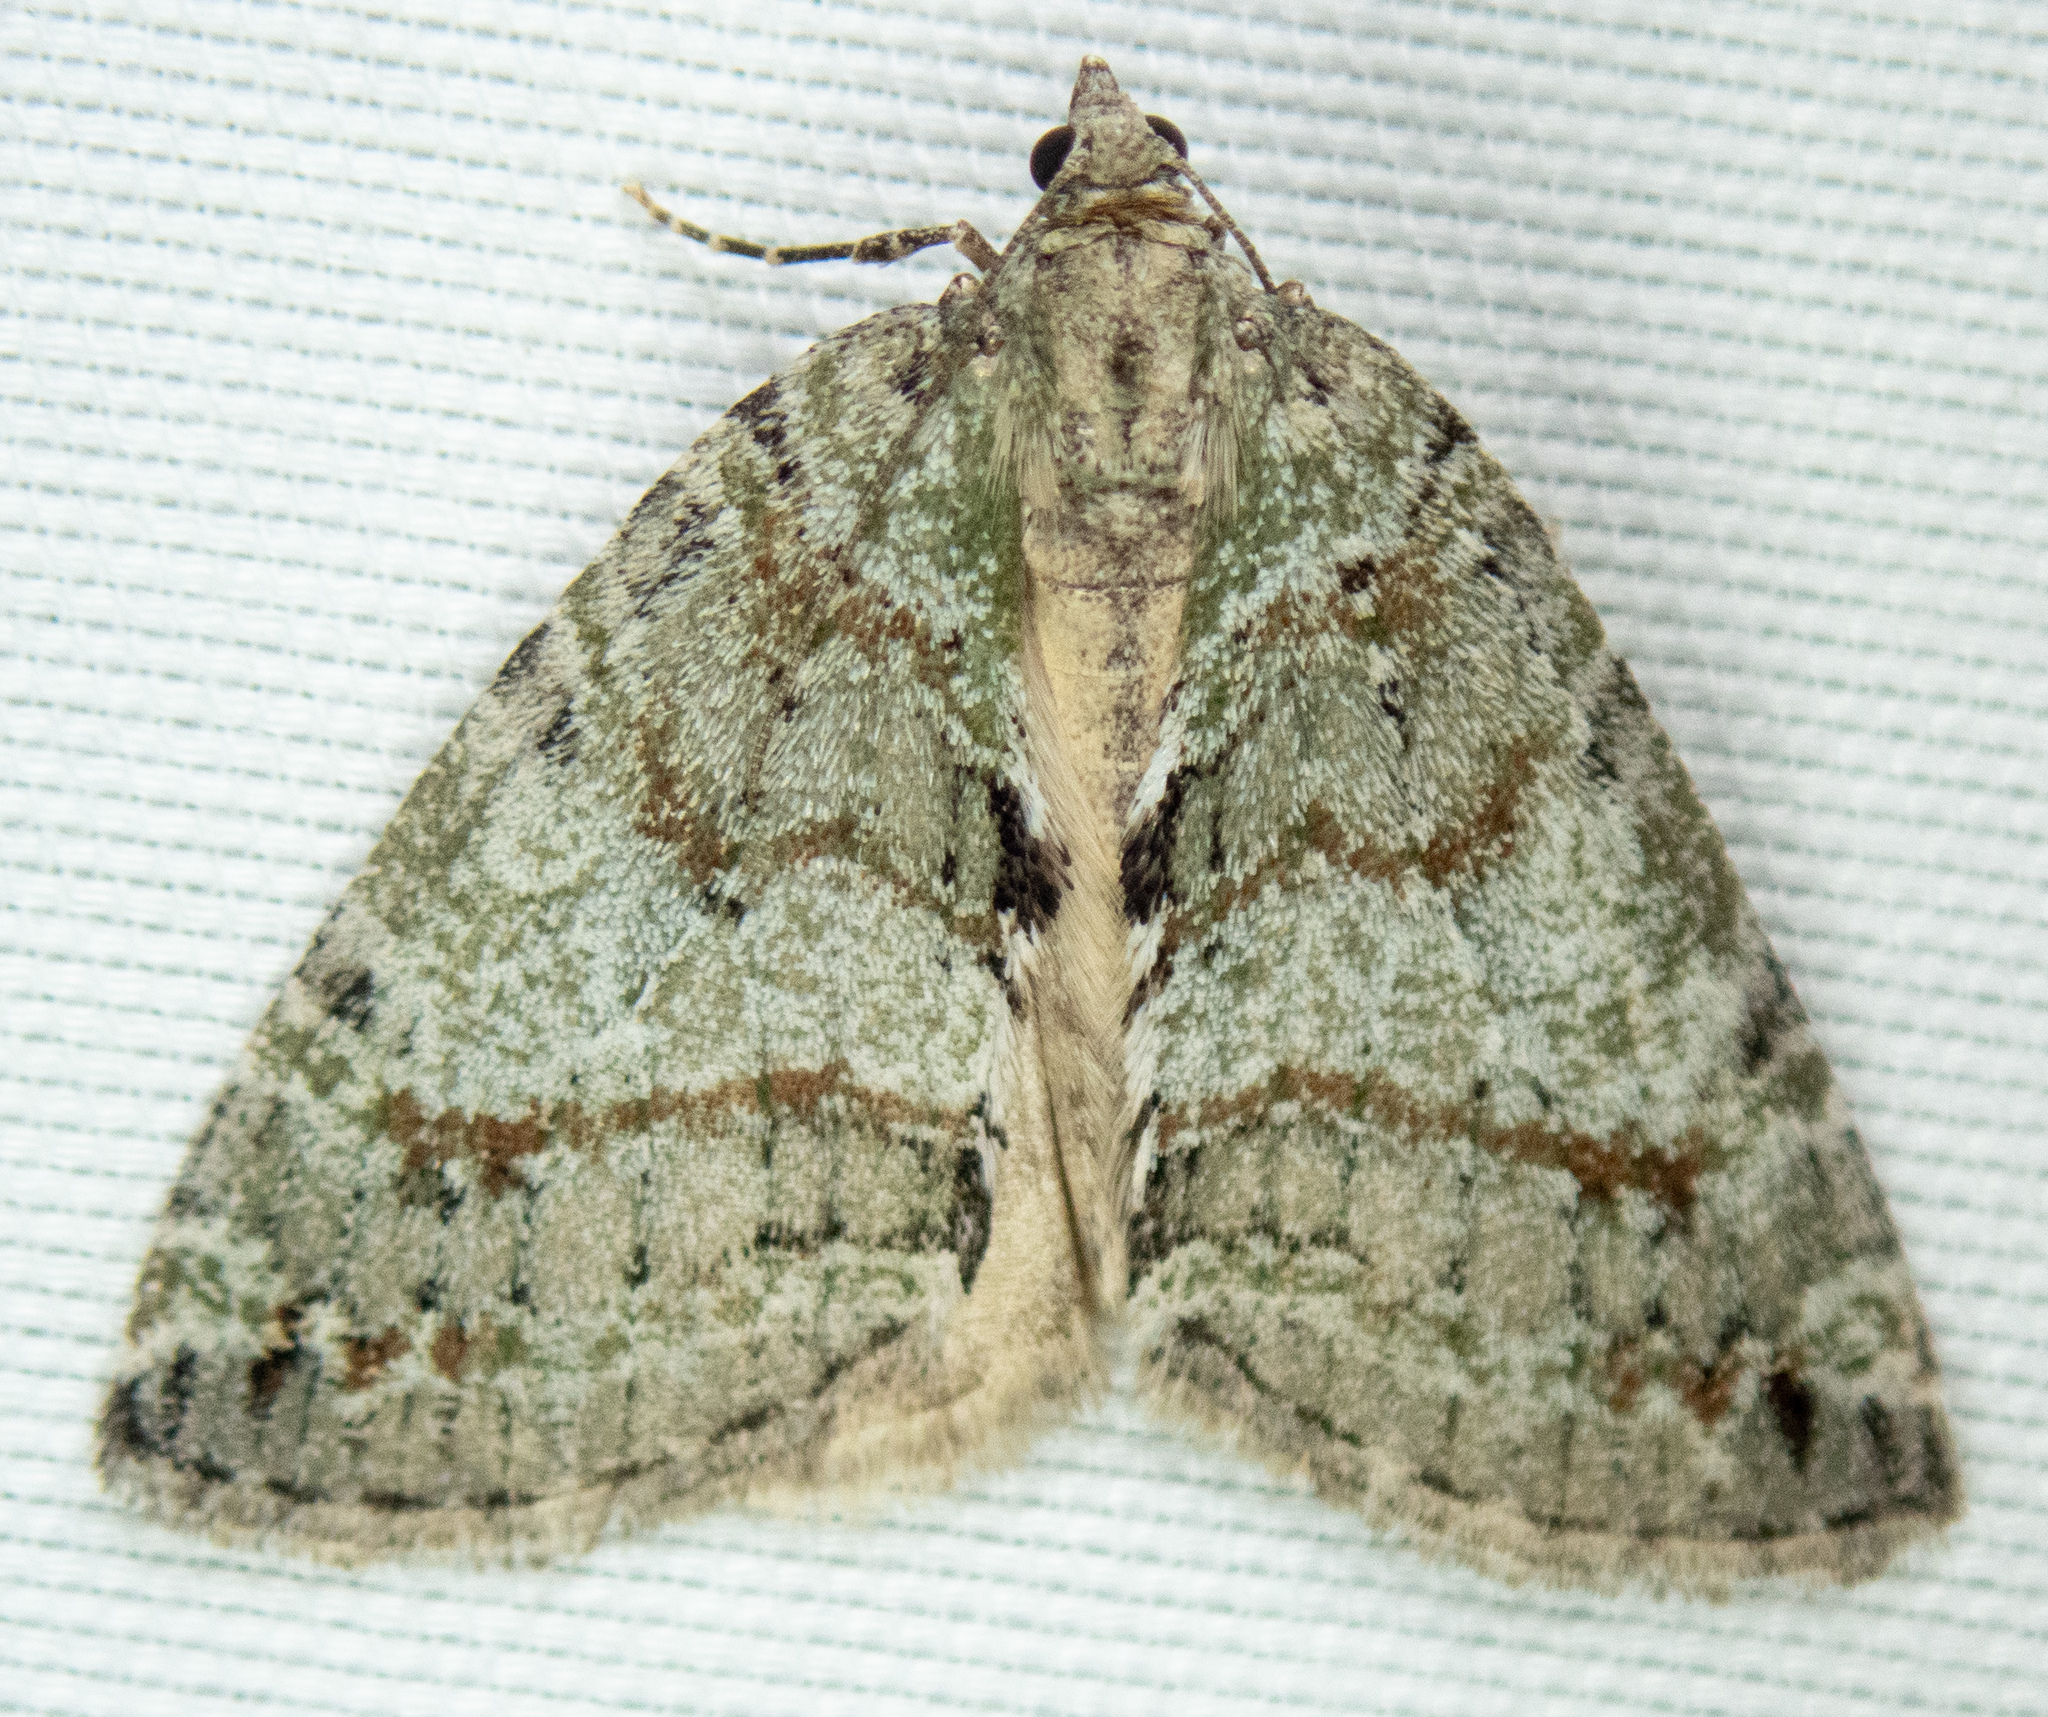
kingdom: Animalia
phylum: Arthropoda
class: Insecta
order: Lepidoptera
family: Geometridae
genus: Hydriomena
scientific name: Hydriomena nubilofasciata
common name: Oak winter highflier moth
